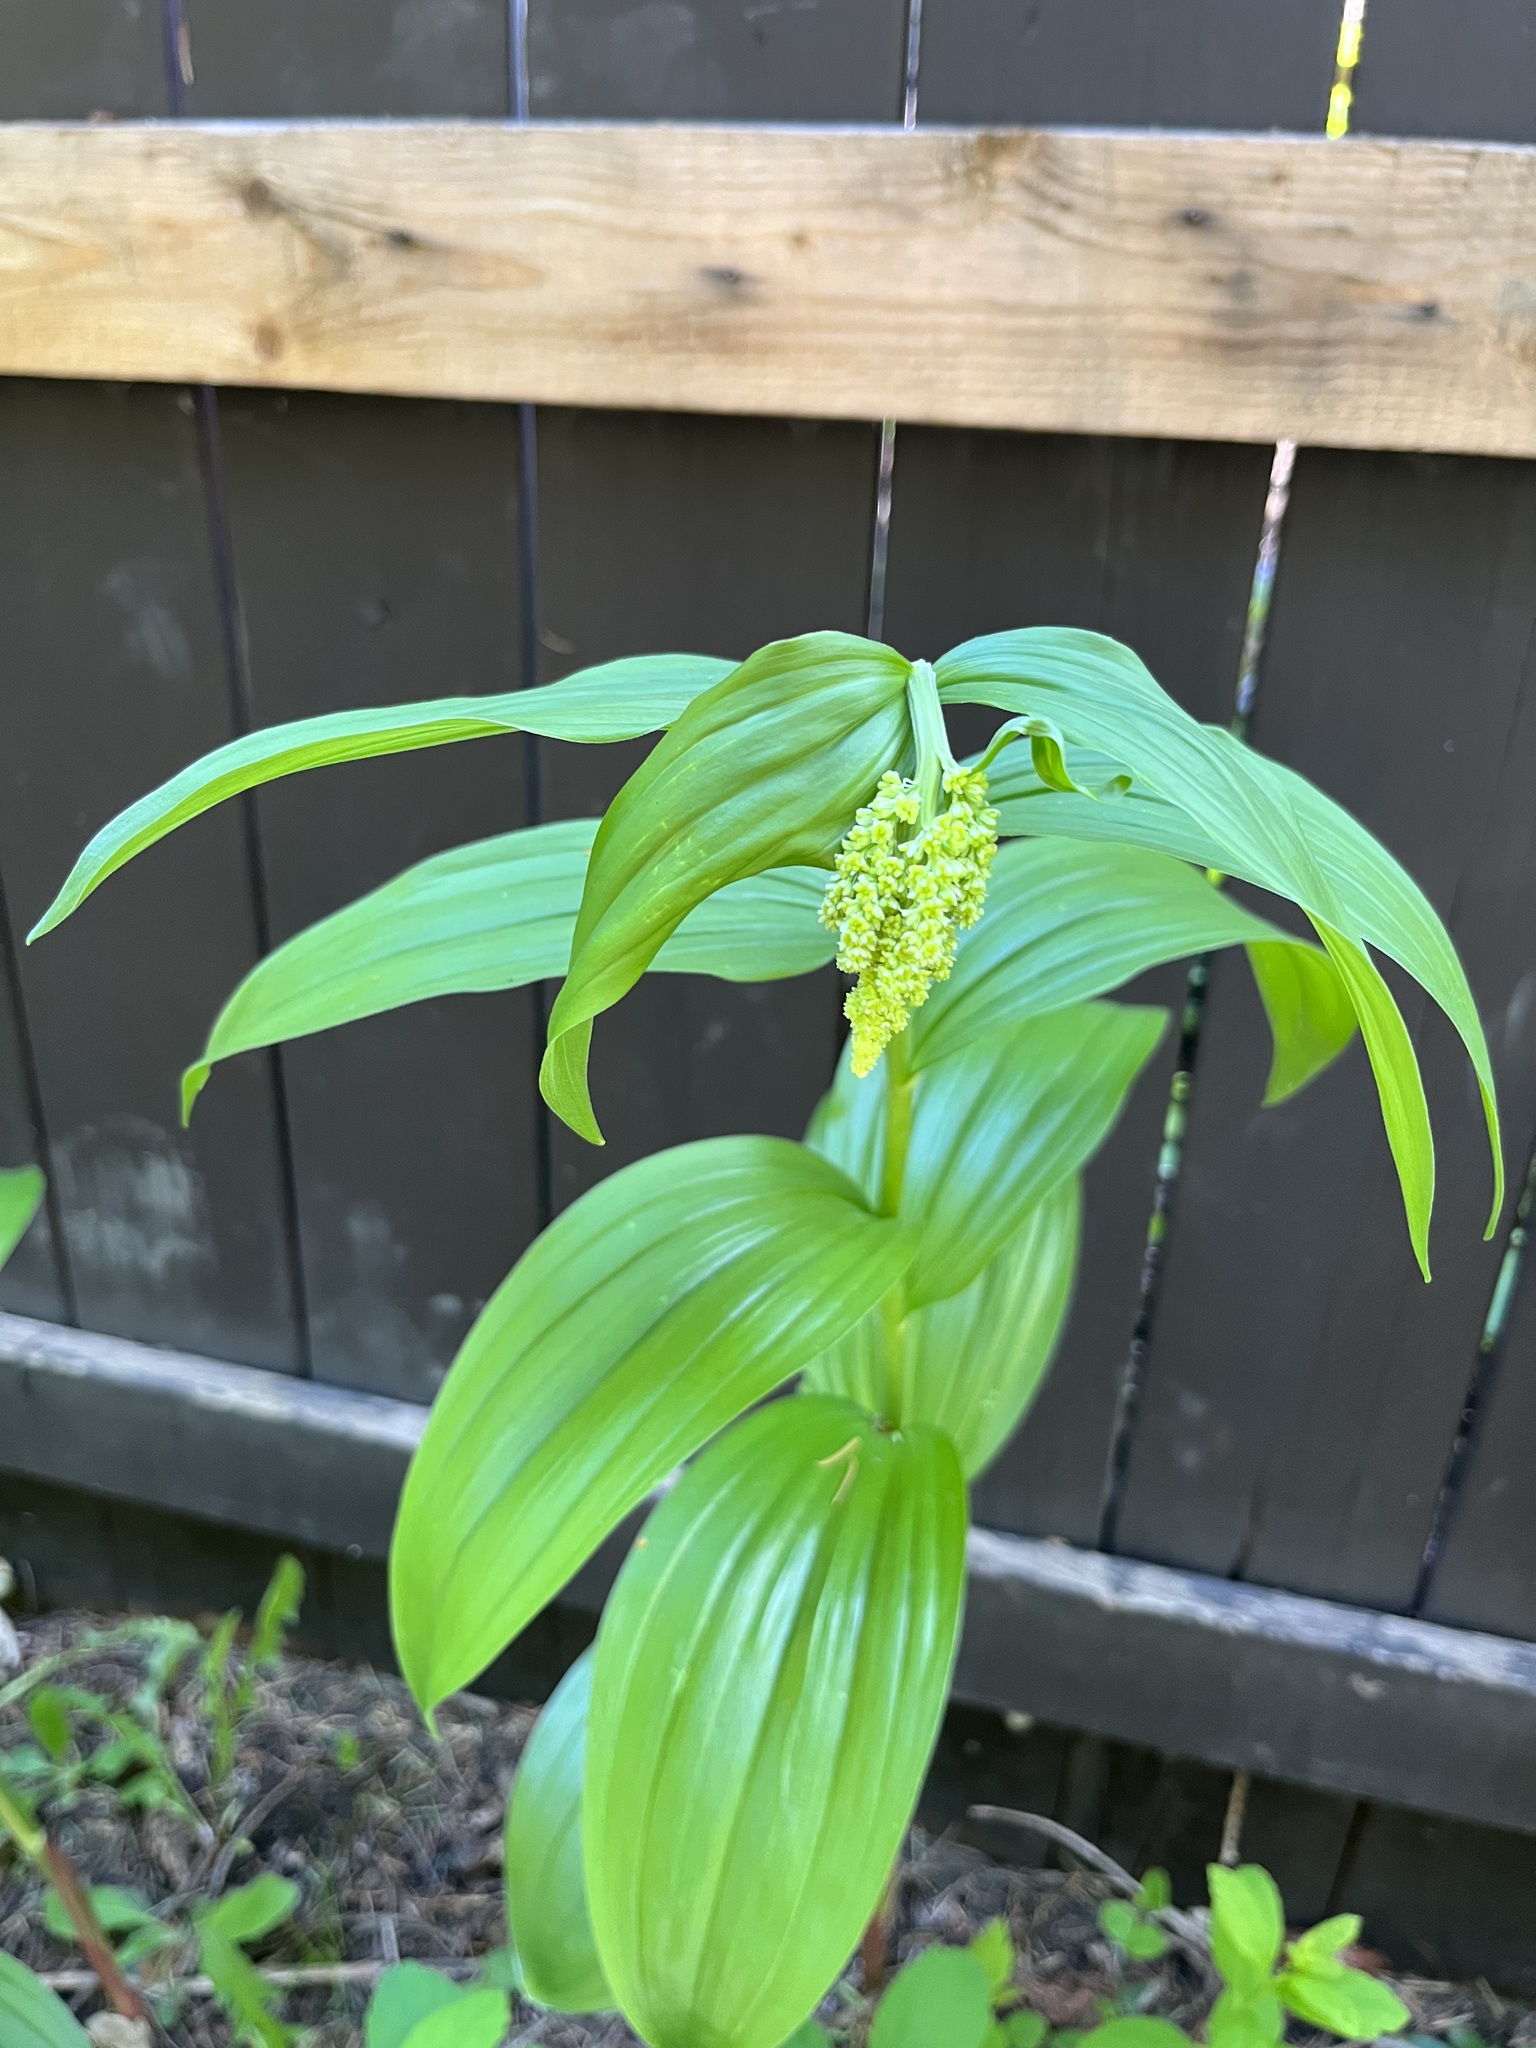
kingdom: Plantae
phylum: Tracheophyta
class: Liliopsida
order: Asparagales
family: Asparagaceae
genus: Maianthemum
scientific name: Maianthemum racemosum
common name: False spikenard
